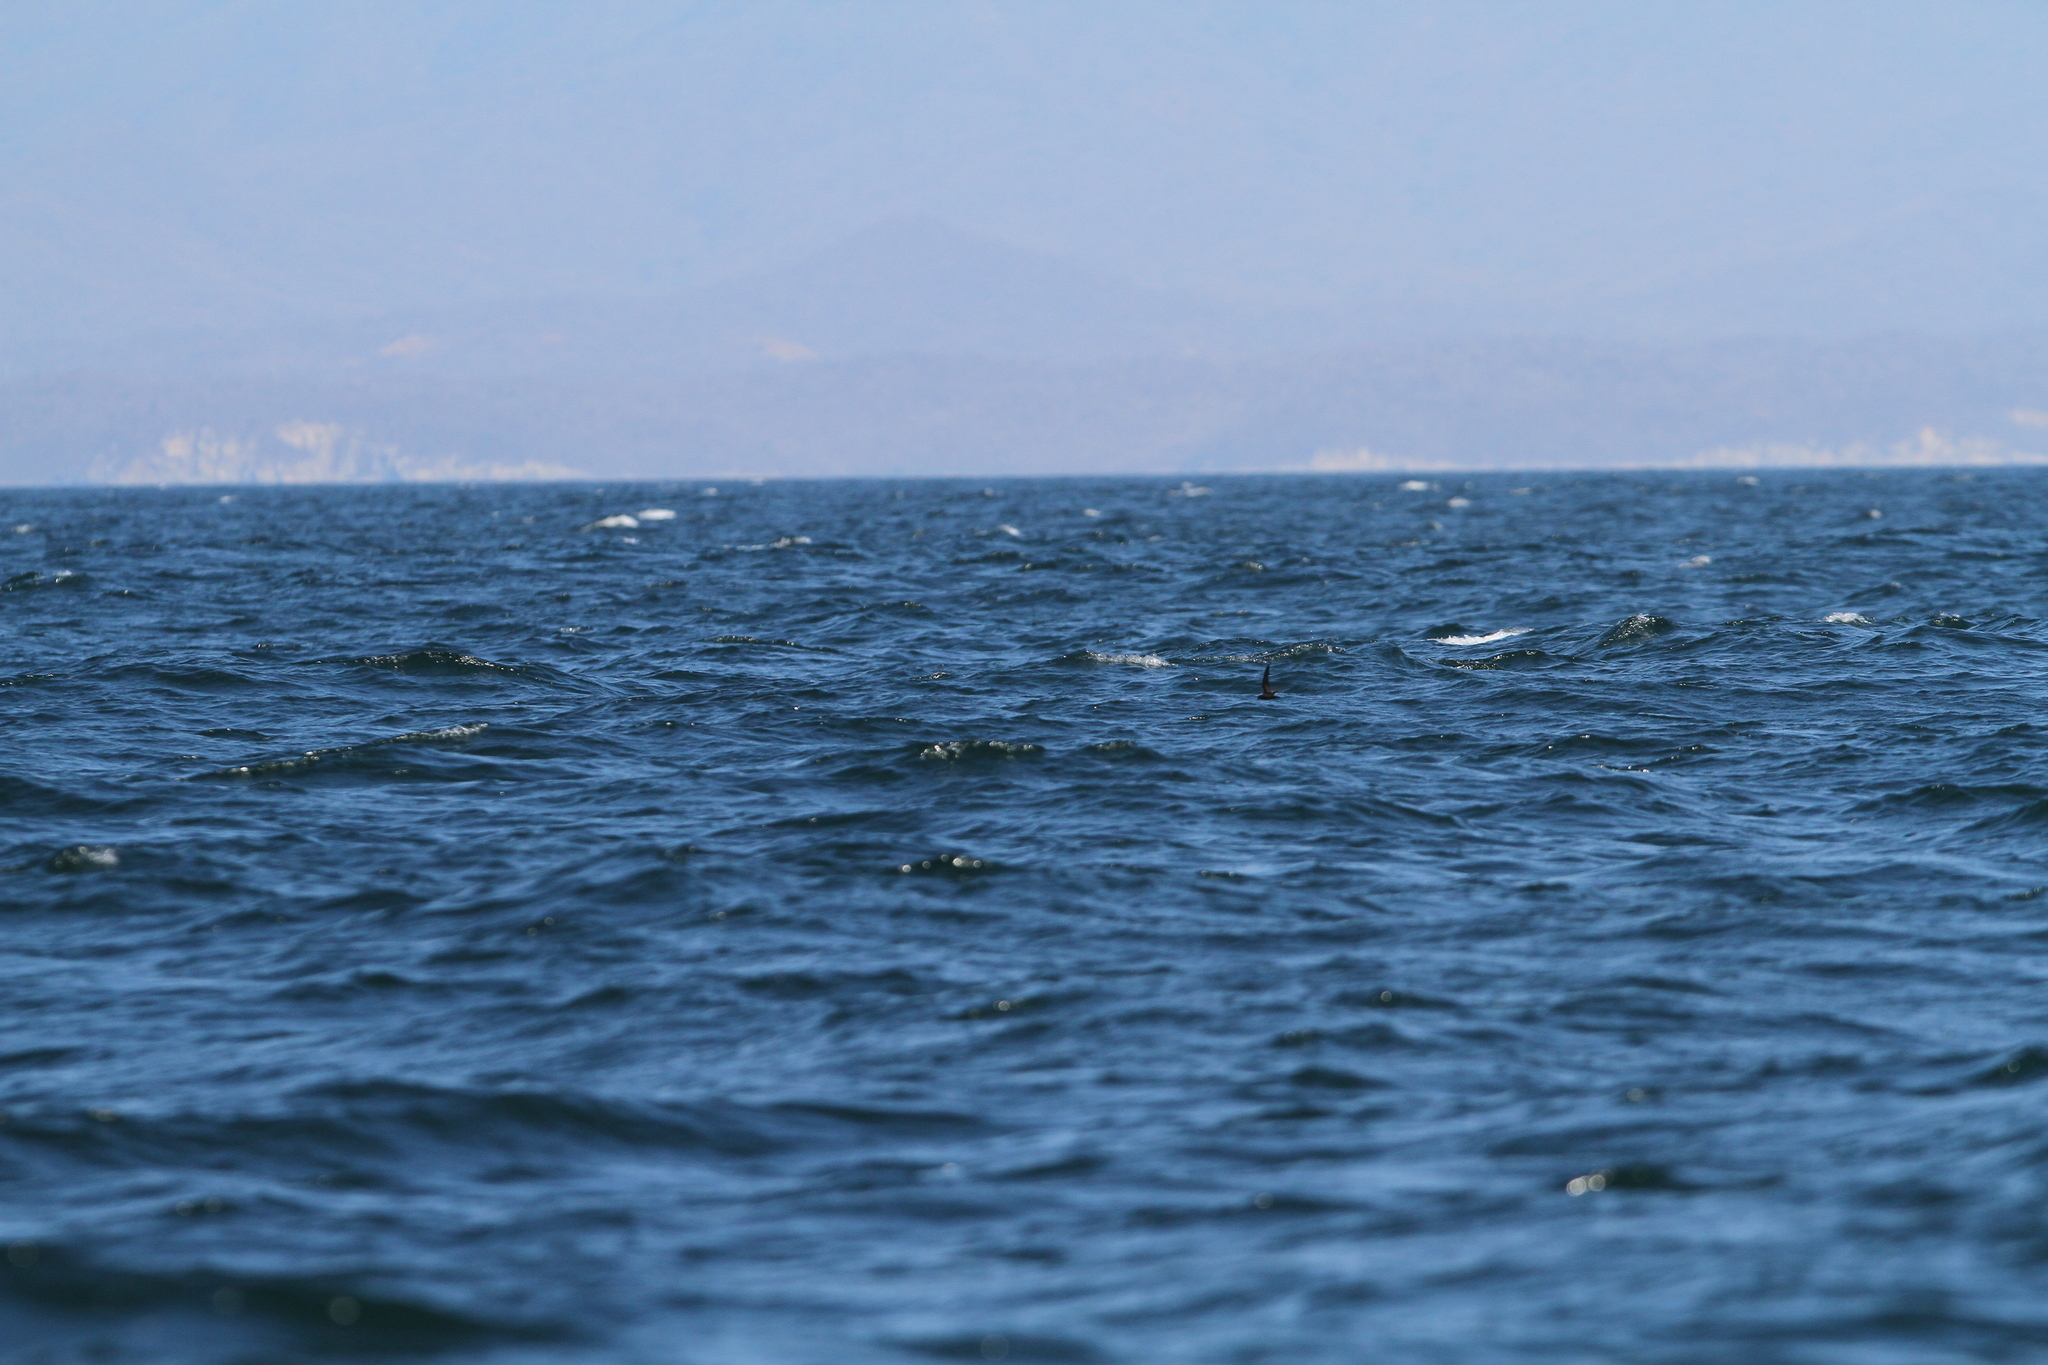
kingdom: Animalia
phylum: Chordata
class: Aves
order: Procellariiformes
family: Hydrobatidae
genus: Oceanodroma
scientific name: Oceanodroma microsoma
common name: Least storm-petrel
